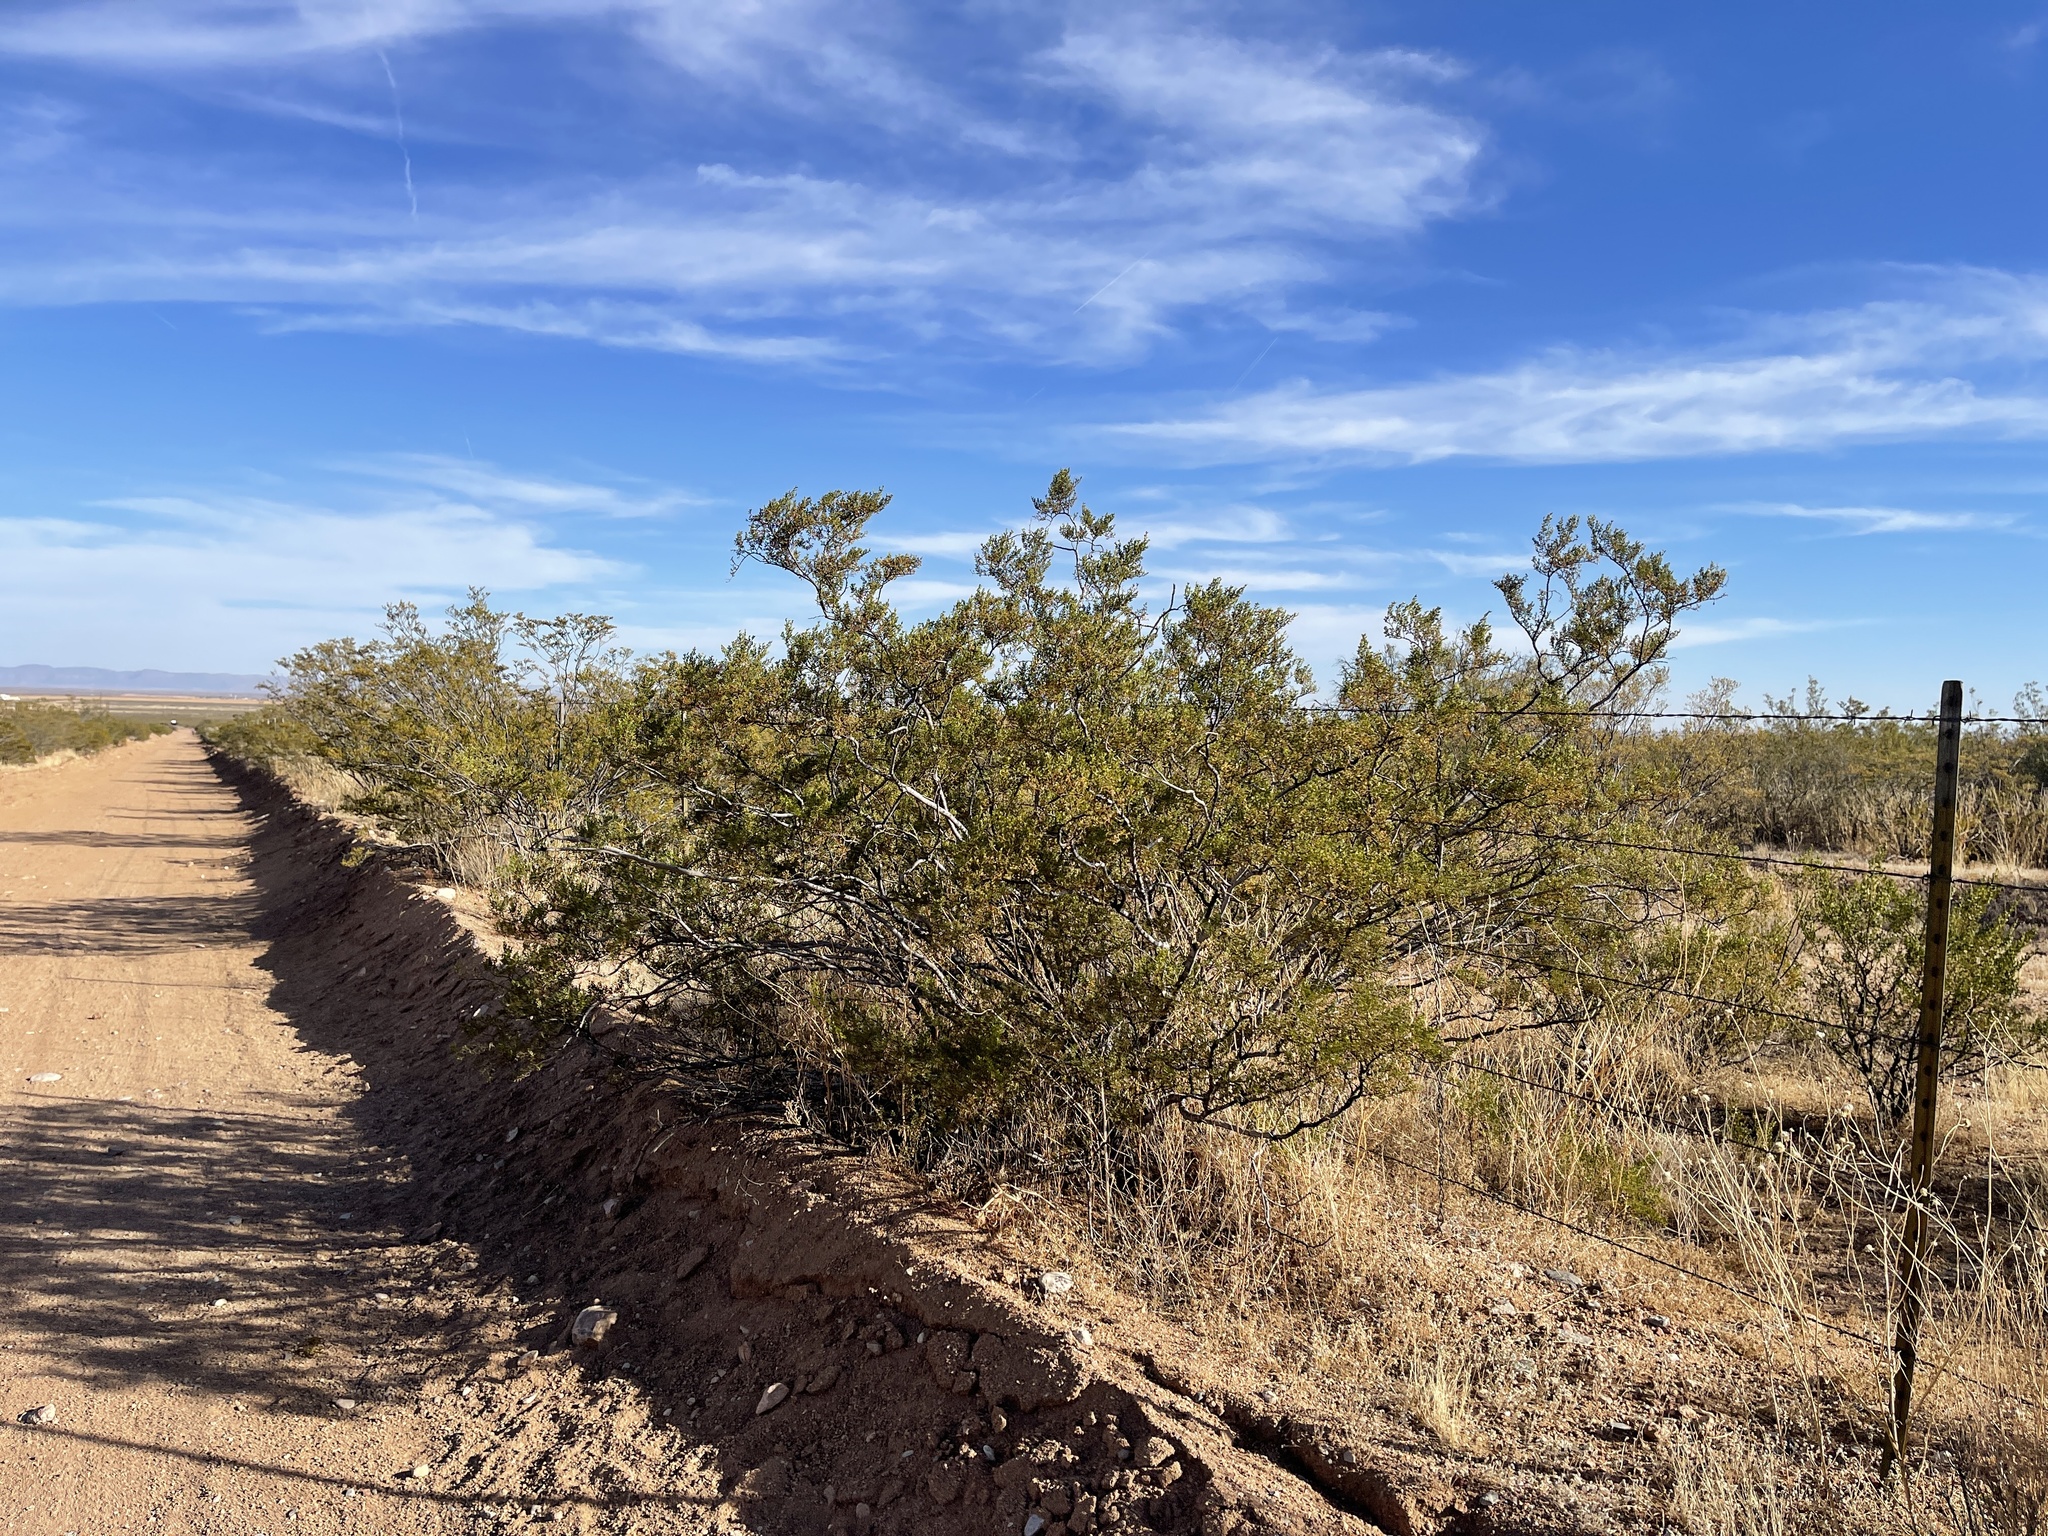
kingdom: Plantae
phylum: Tracheophyta
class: Magnoliopsida
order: Zygophyllales
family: Zygophyllaceae
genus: Larrea
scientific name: Larrea tridentata
